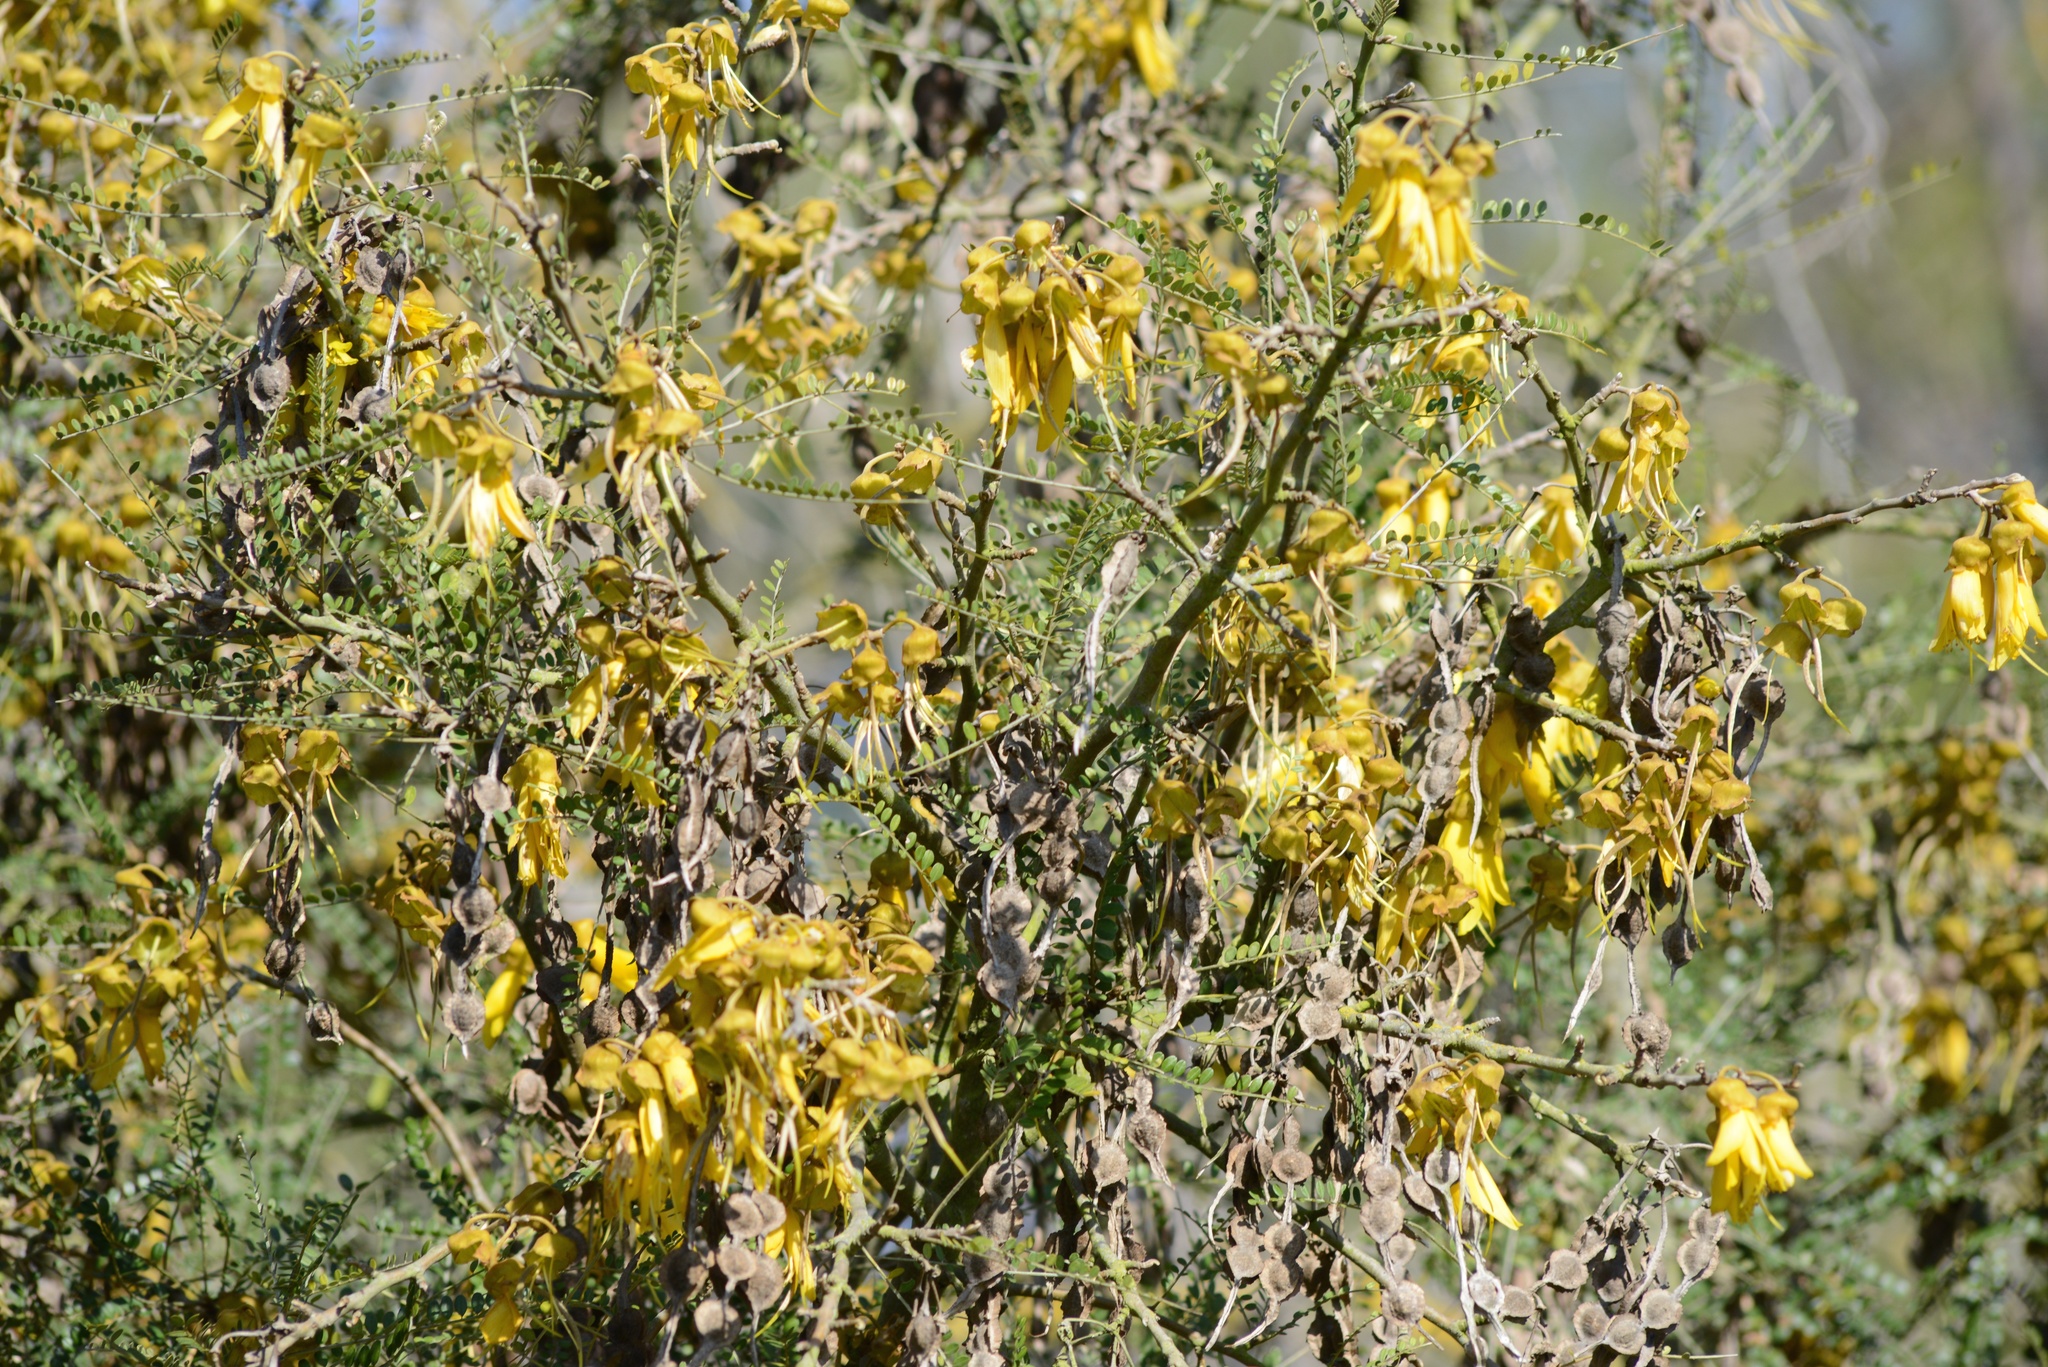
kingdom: Plantae
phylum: Tracheophyta
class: Magnoliopsida
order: Fabales
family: Fabaceae
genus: Sophora
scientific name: Sophora microphylla
